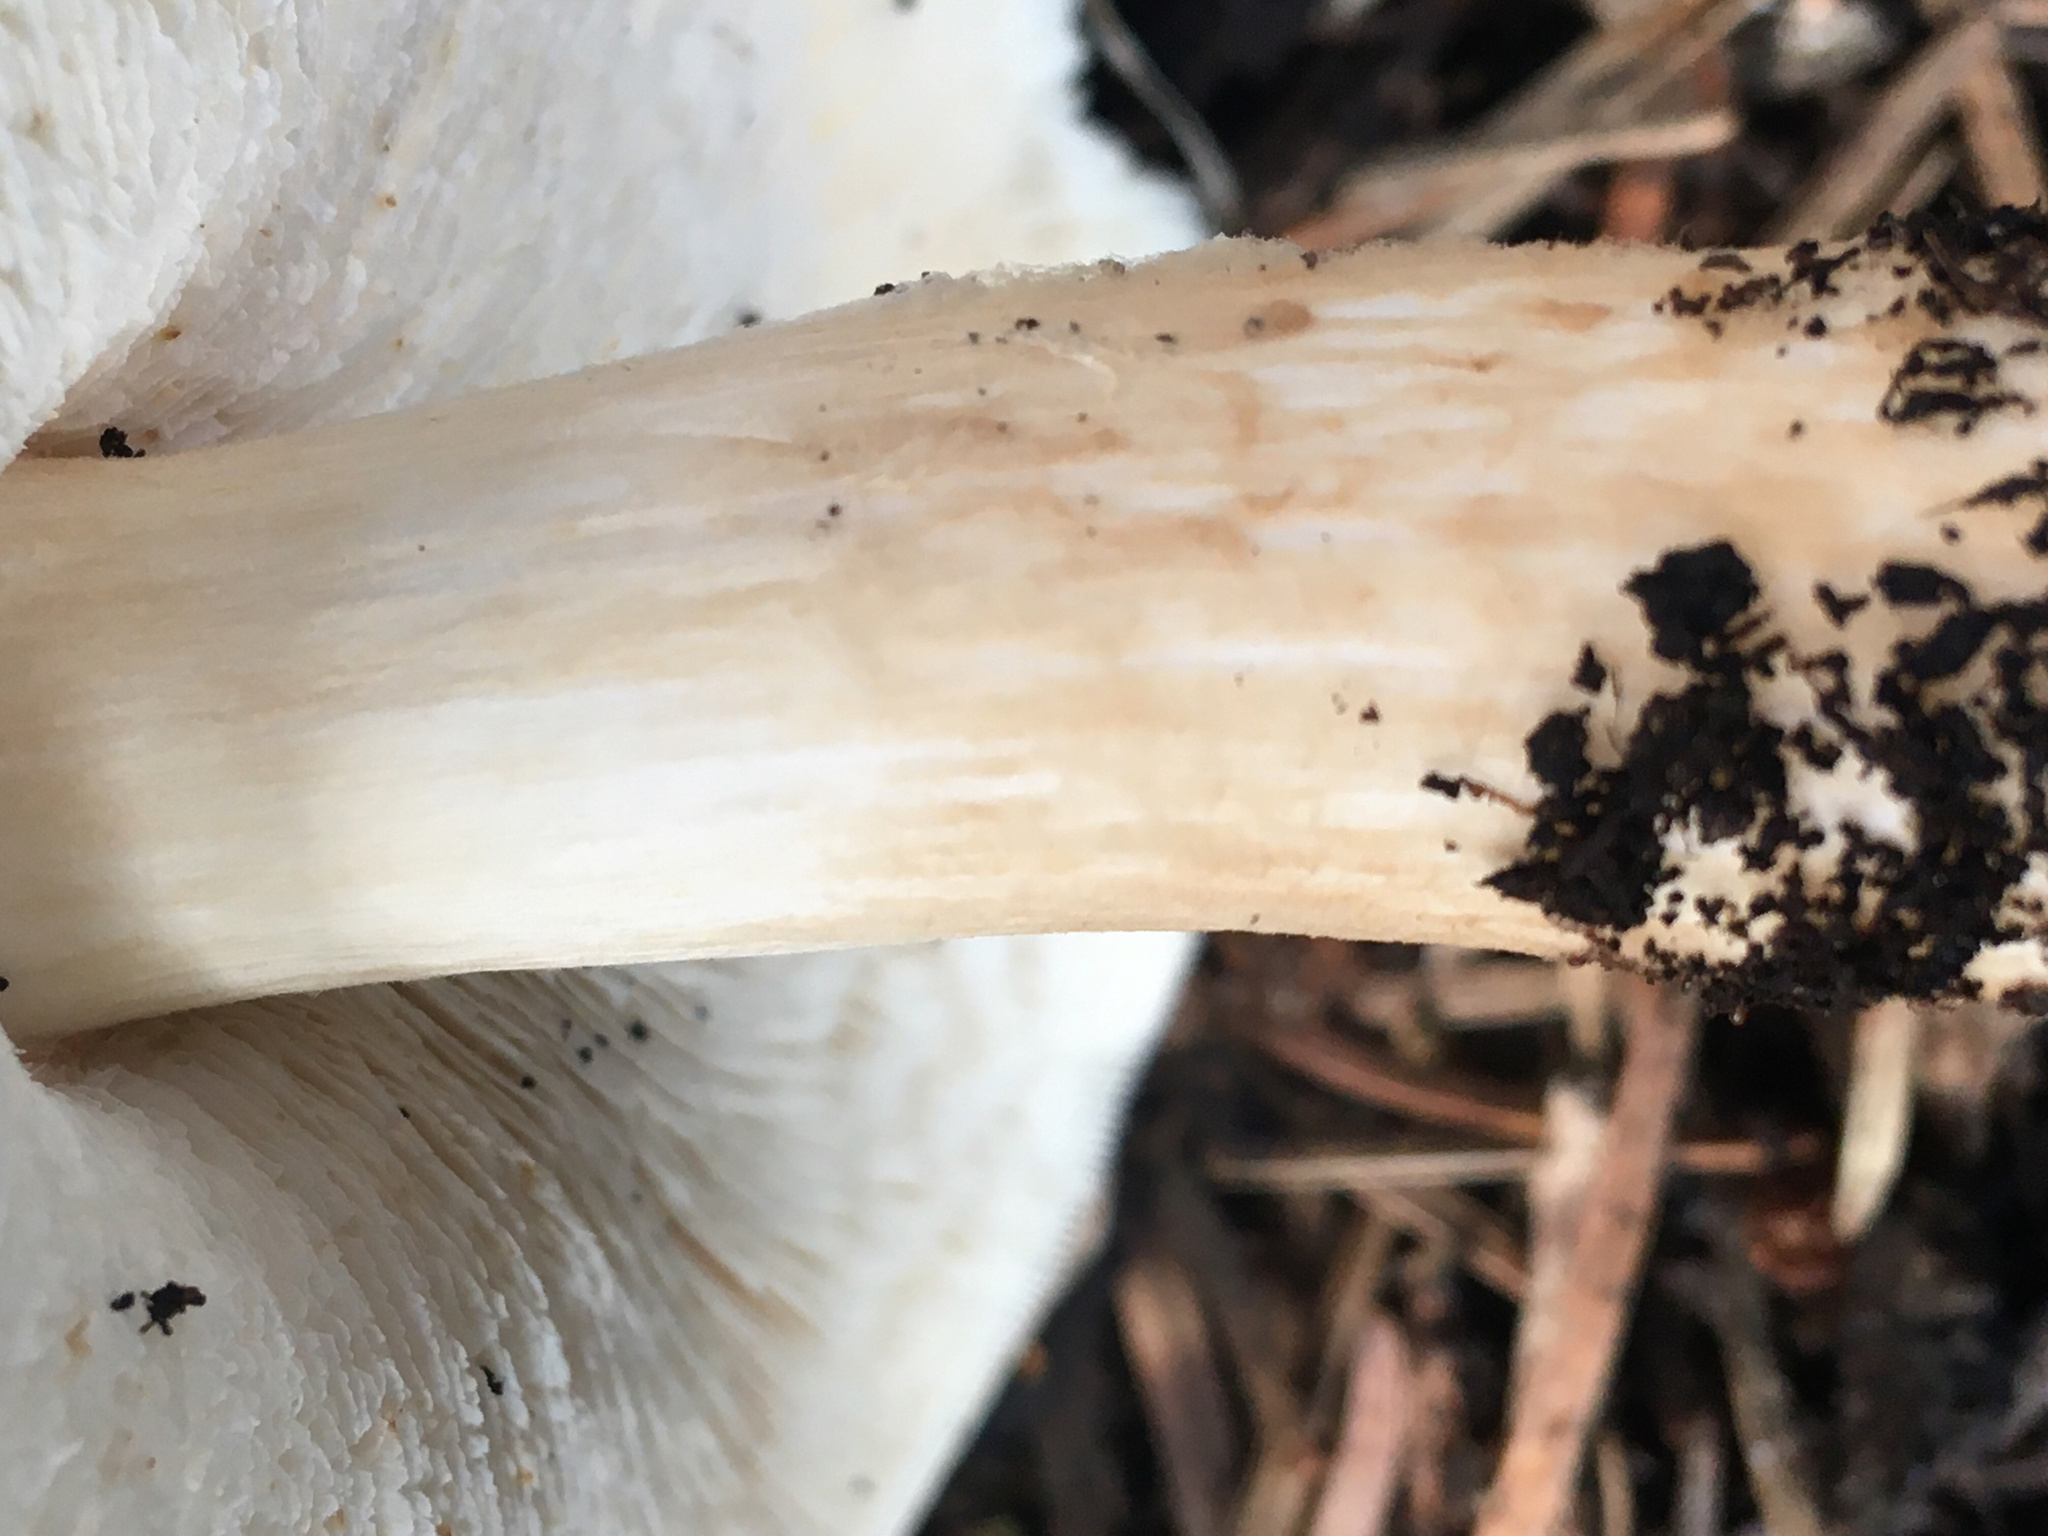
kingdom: Fungi
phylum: Basidiomycota
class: Agaricomycetes
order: Agaricales
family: Agaricaceae
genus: Echinoderma
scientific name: Echinoderma asperum
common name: Freckled dapperling
